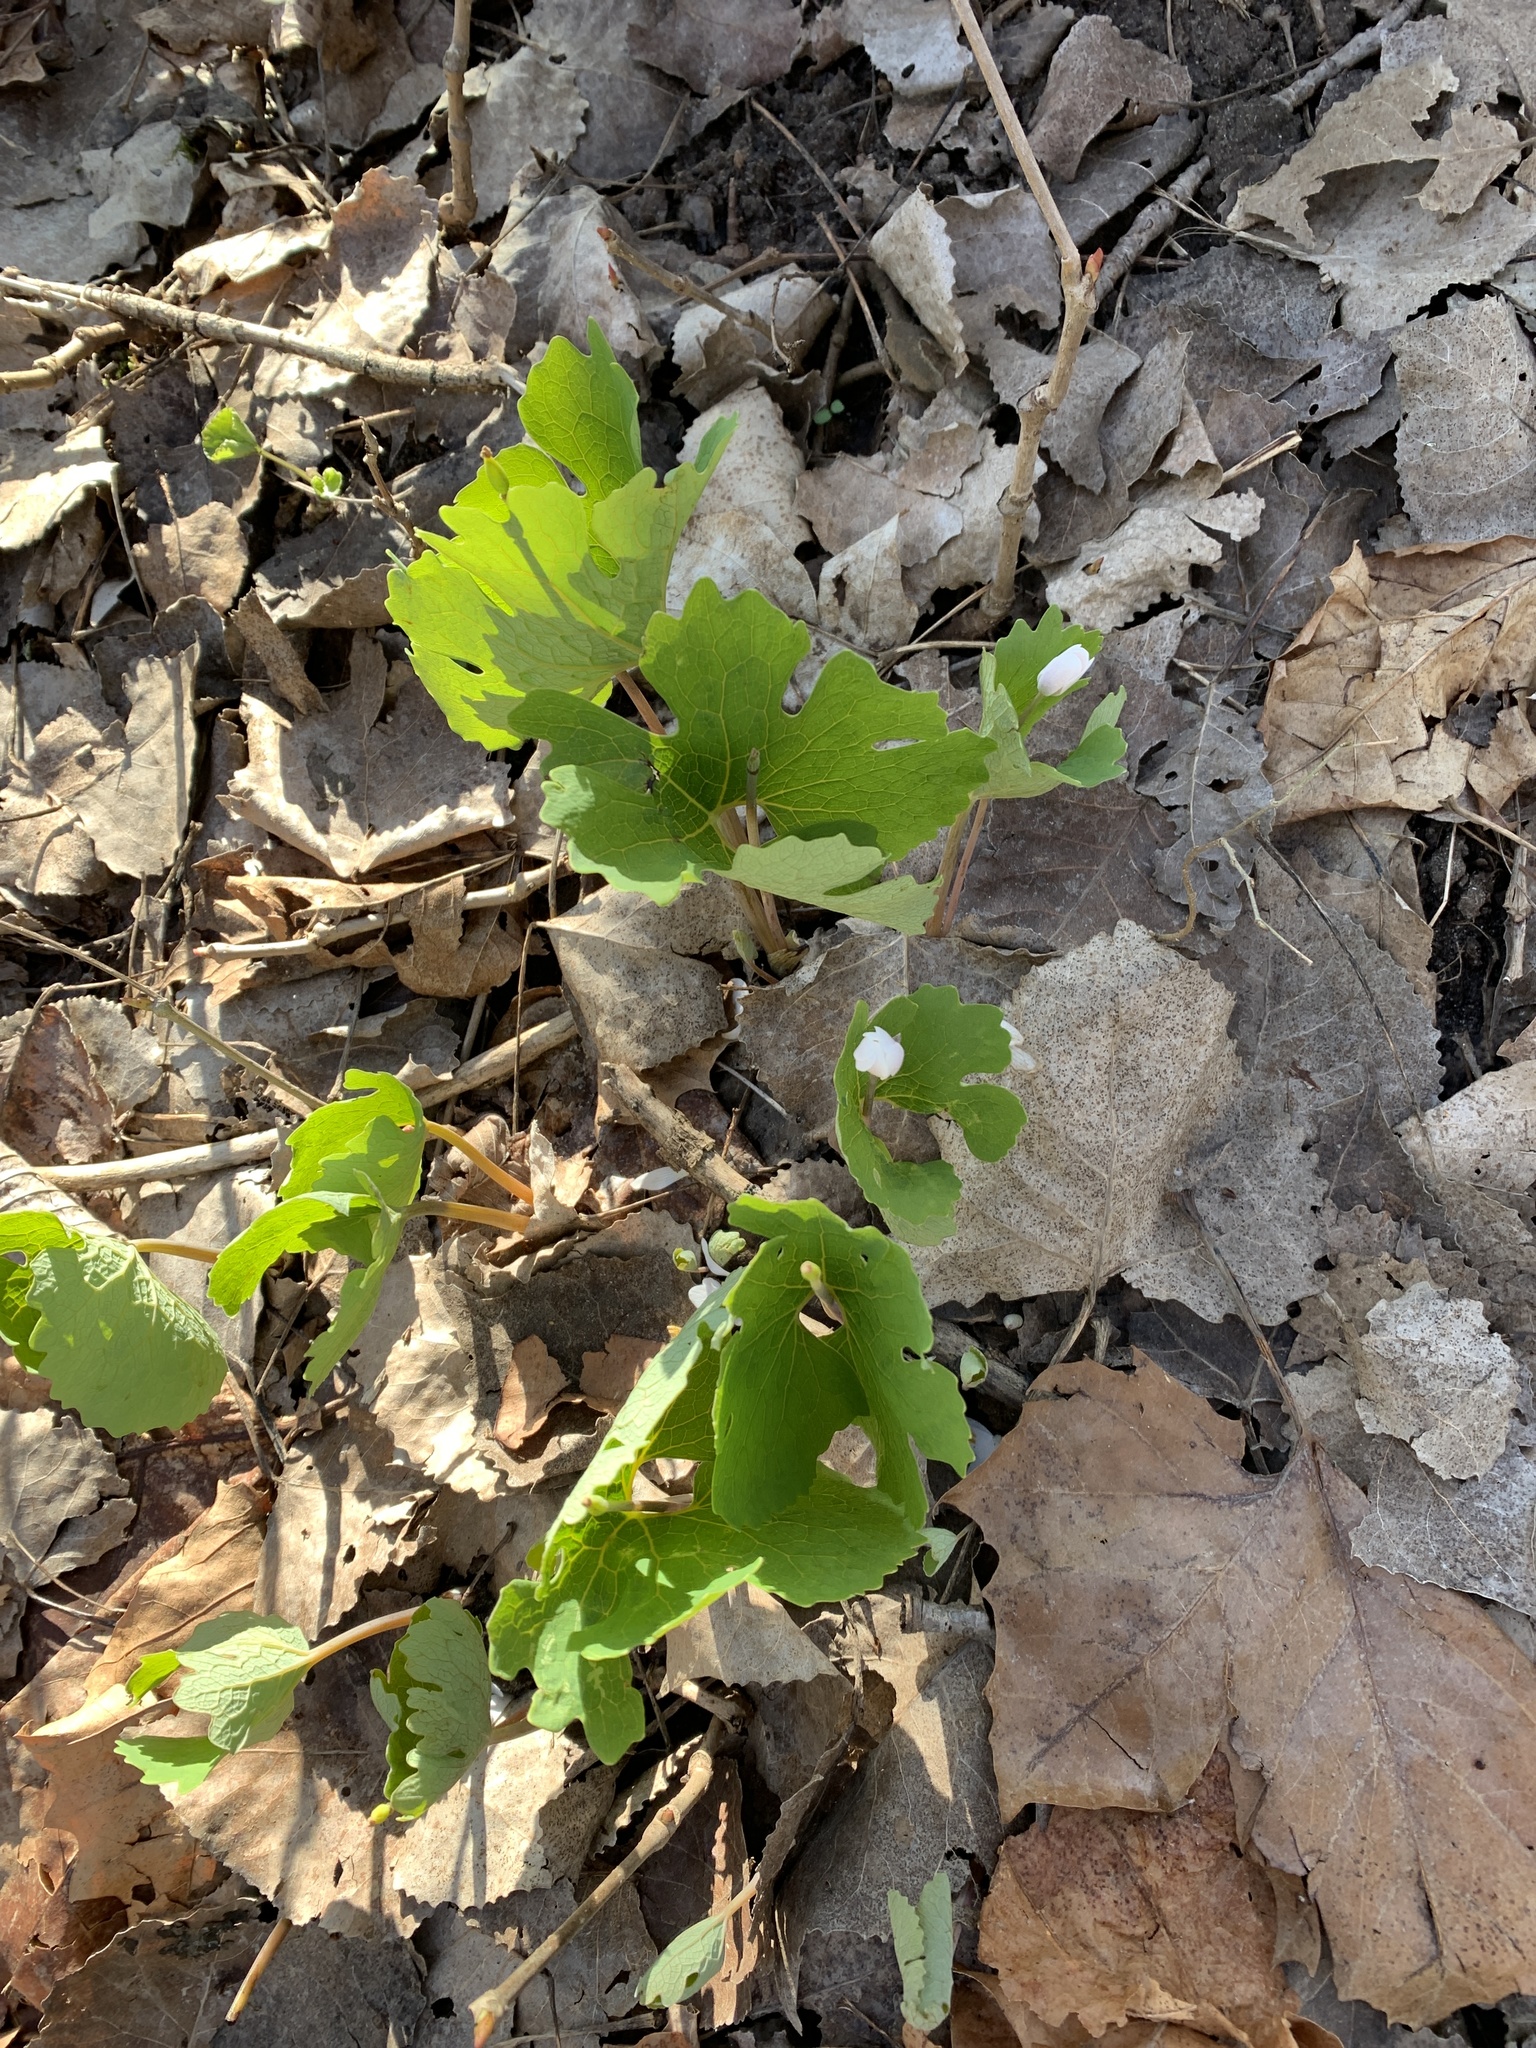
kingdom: Plantae
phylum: Tracheophyta
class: Magnoliopsida
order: Ranunculales
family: Papaveraceae
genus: Sanguinaria
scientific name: Sanguinaria canadensis
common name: Bloodroot
